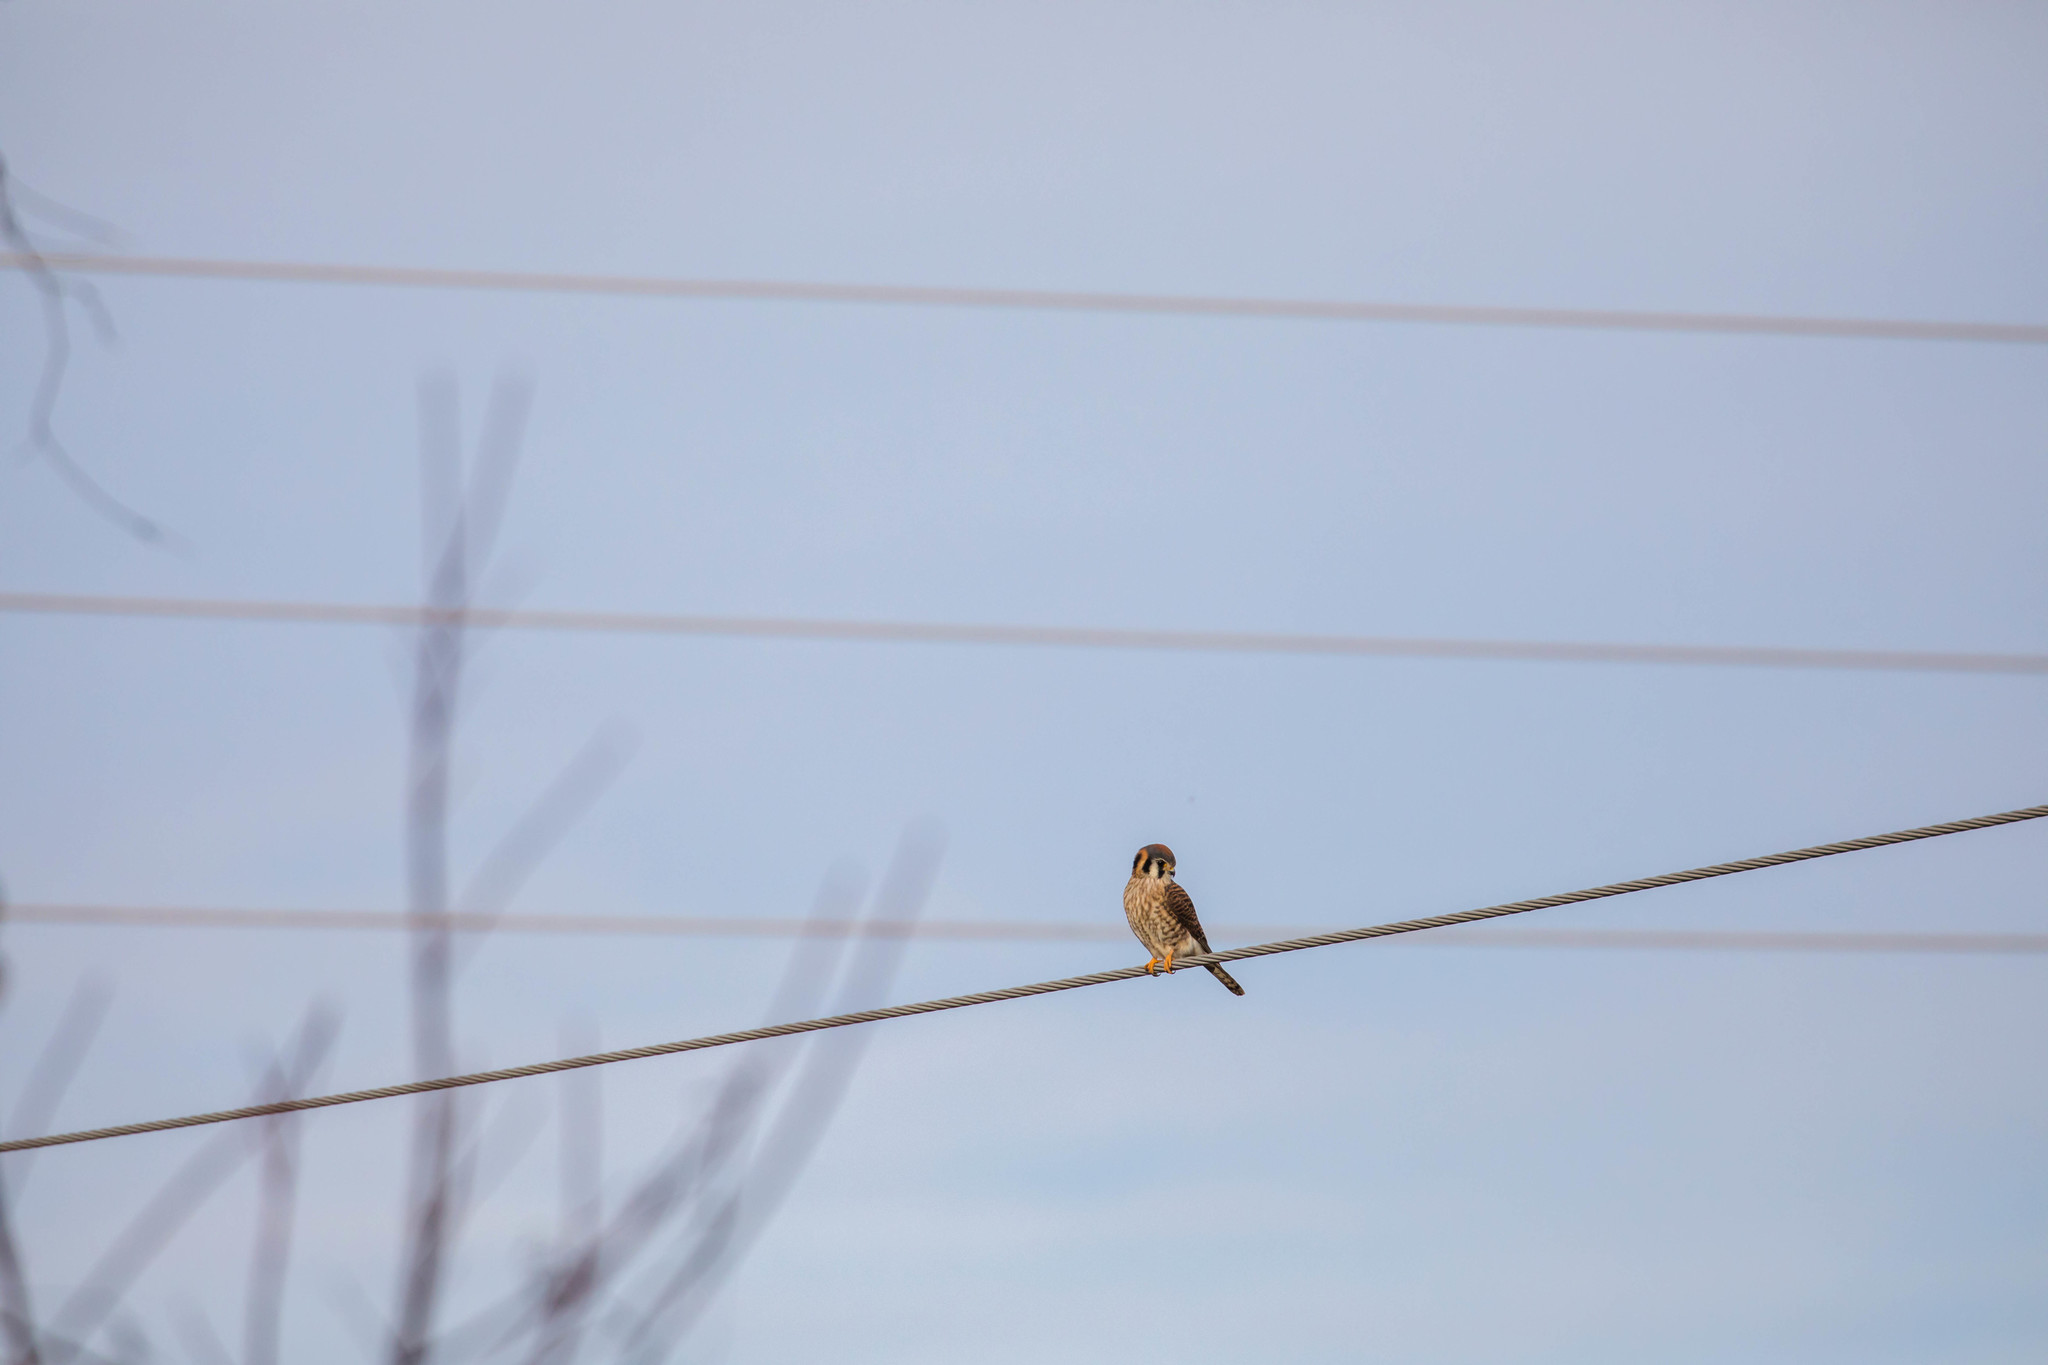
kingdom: Animalia
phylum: Chordata
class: Aves
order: Falconiformes
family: Falconidae
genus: Falco
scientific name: Falco sparverius
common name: American kestrel
